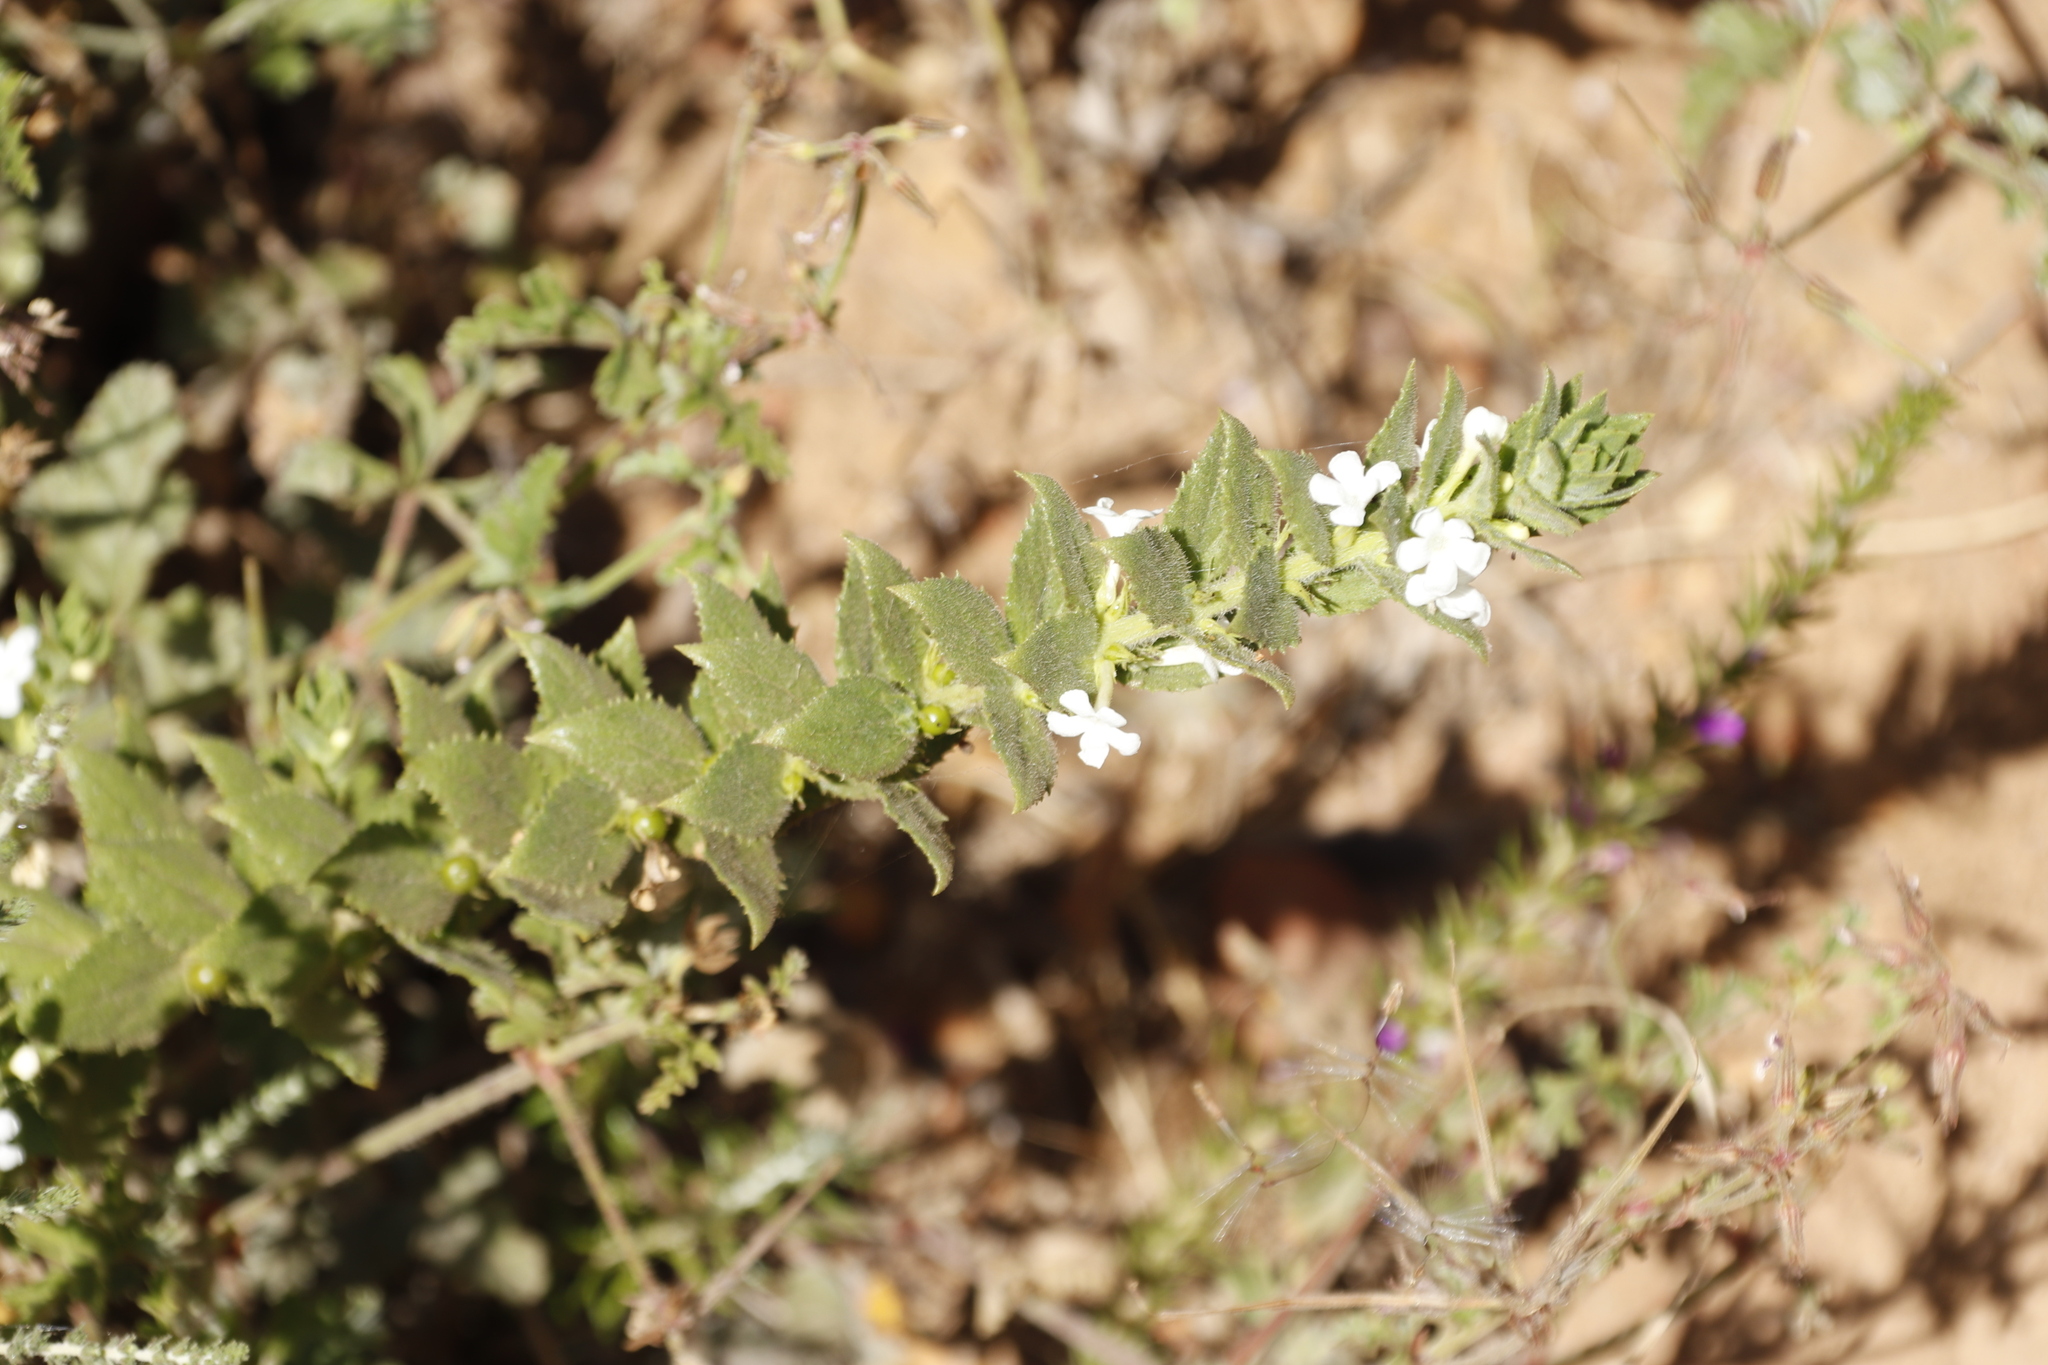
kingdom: Plantae
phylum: Tracheophyta
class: Magnoliopsida
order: Lamiales
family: Scrophulariaceae
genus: Oftia
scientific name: Oftia africana
